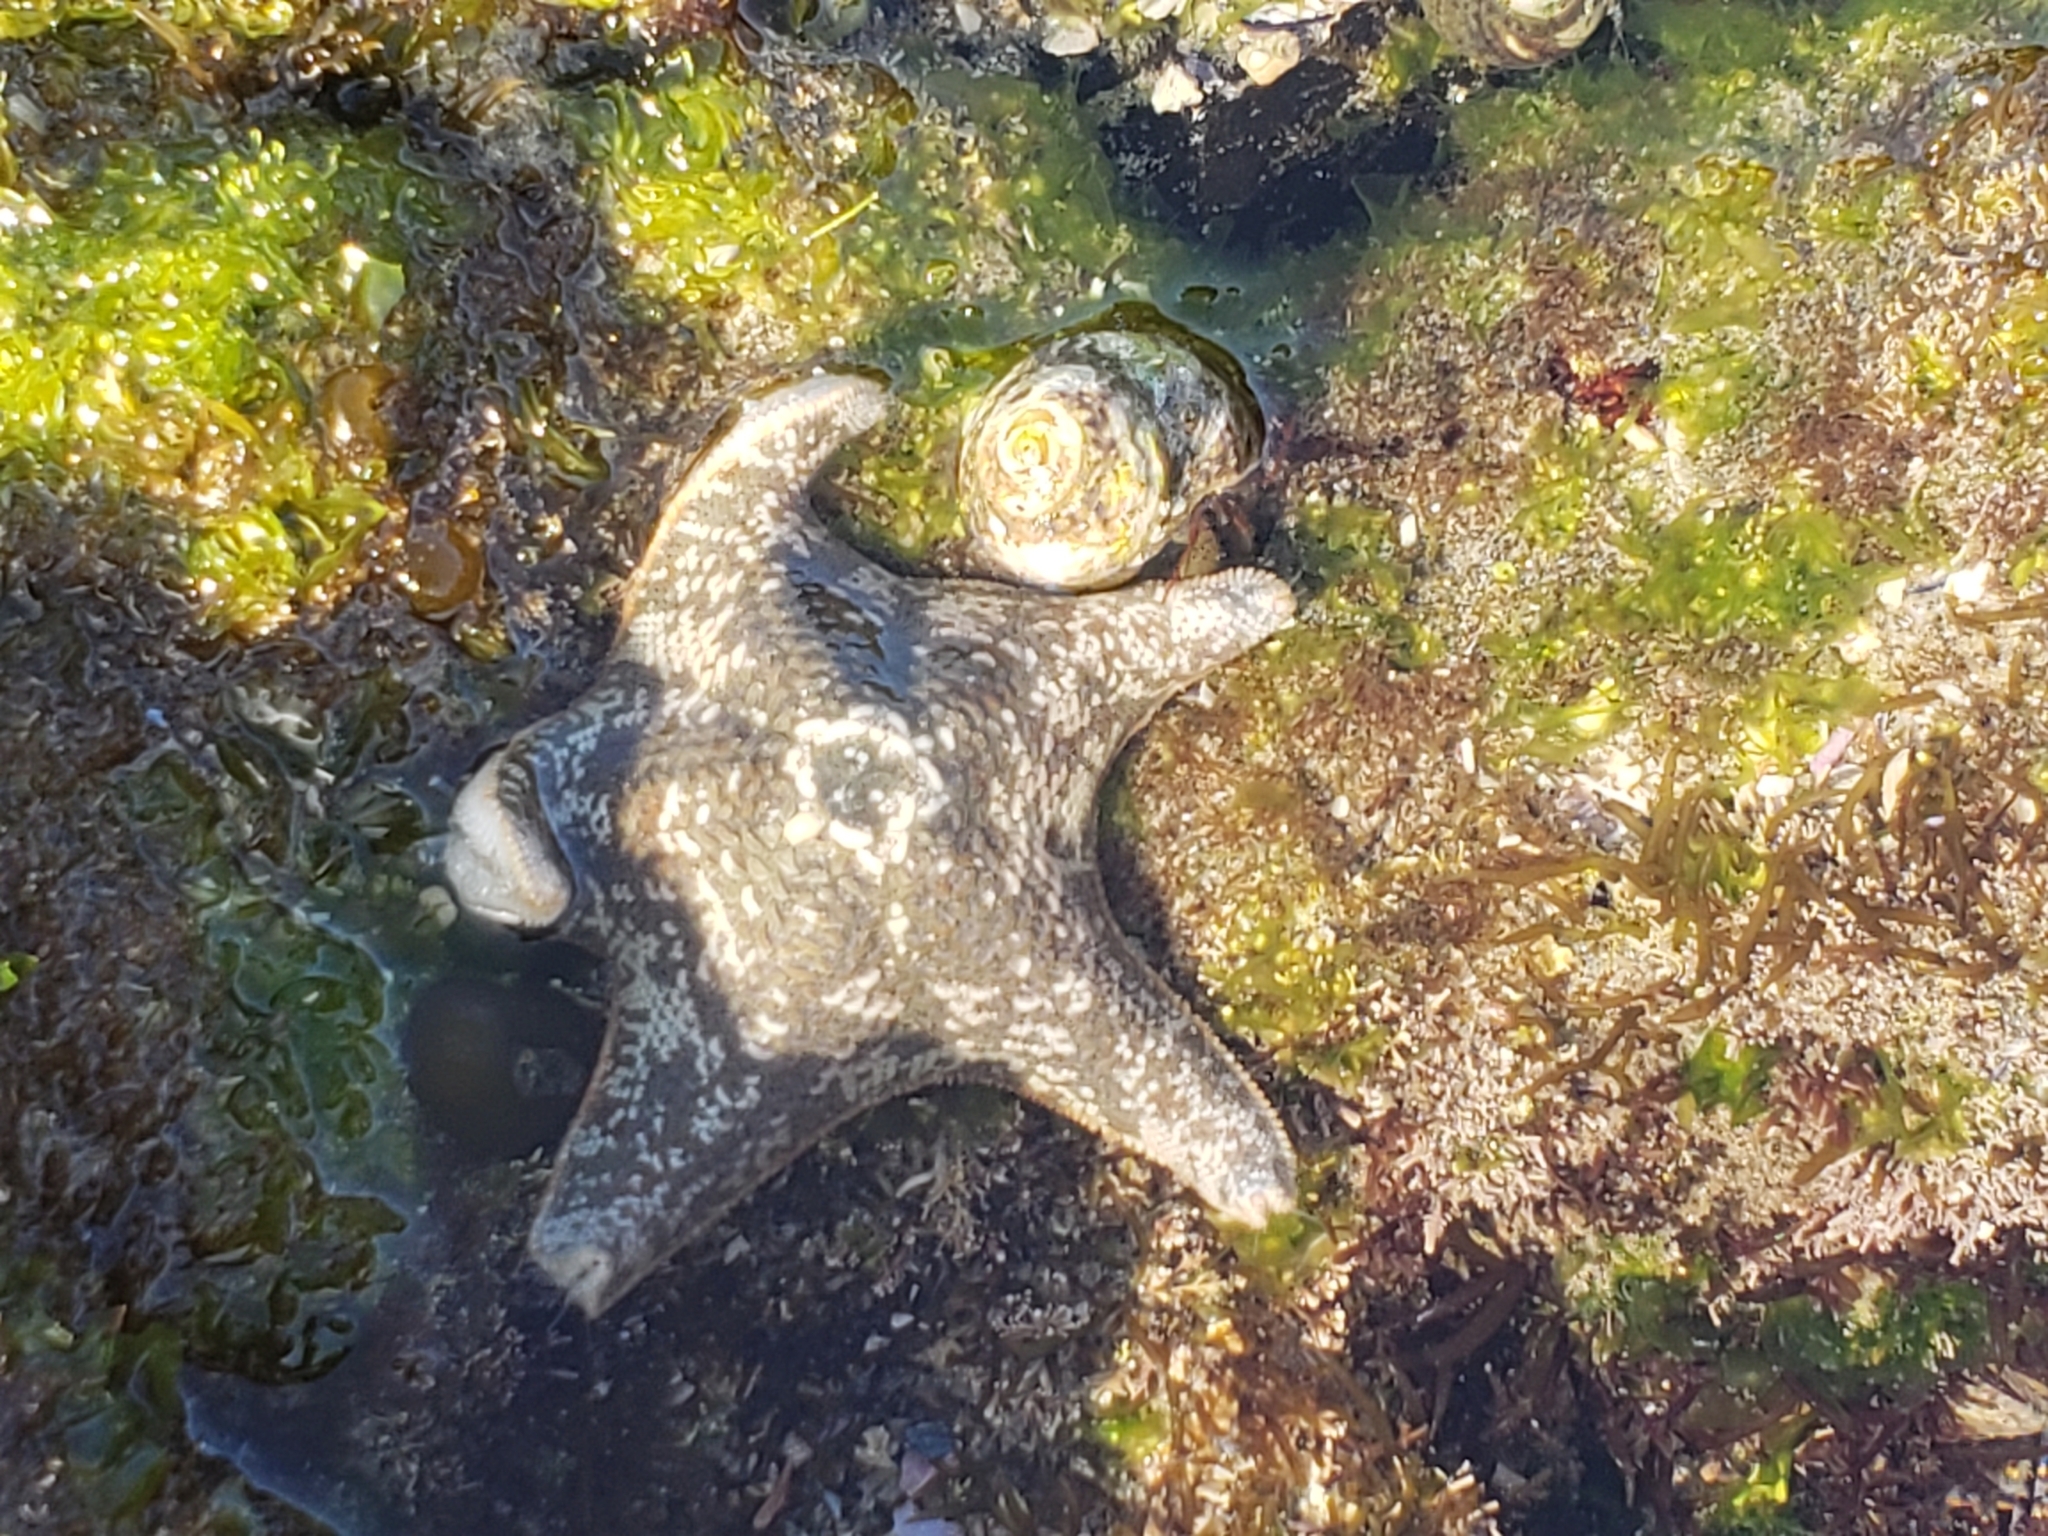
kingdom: Animalia
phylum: Echinodermata
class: Asteroidea
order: Valvatida
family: Asterinidae
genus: Patiria
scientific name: Patiria miniata
